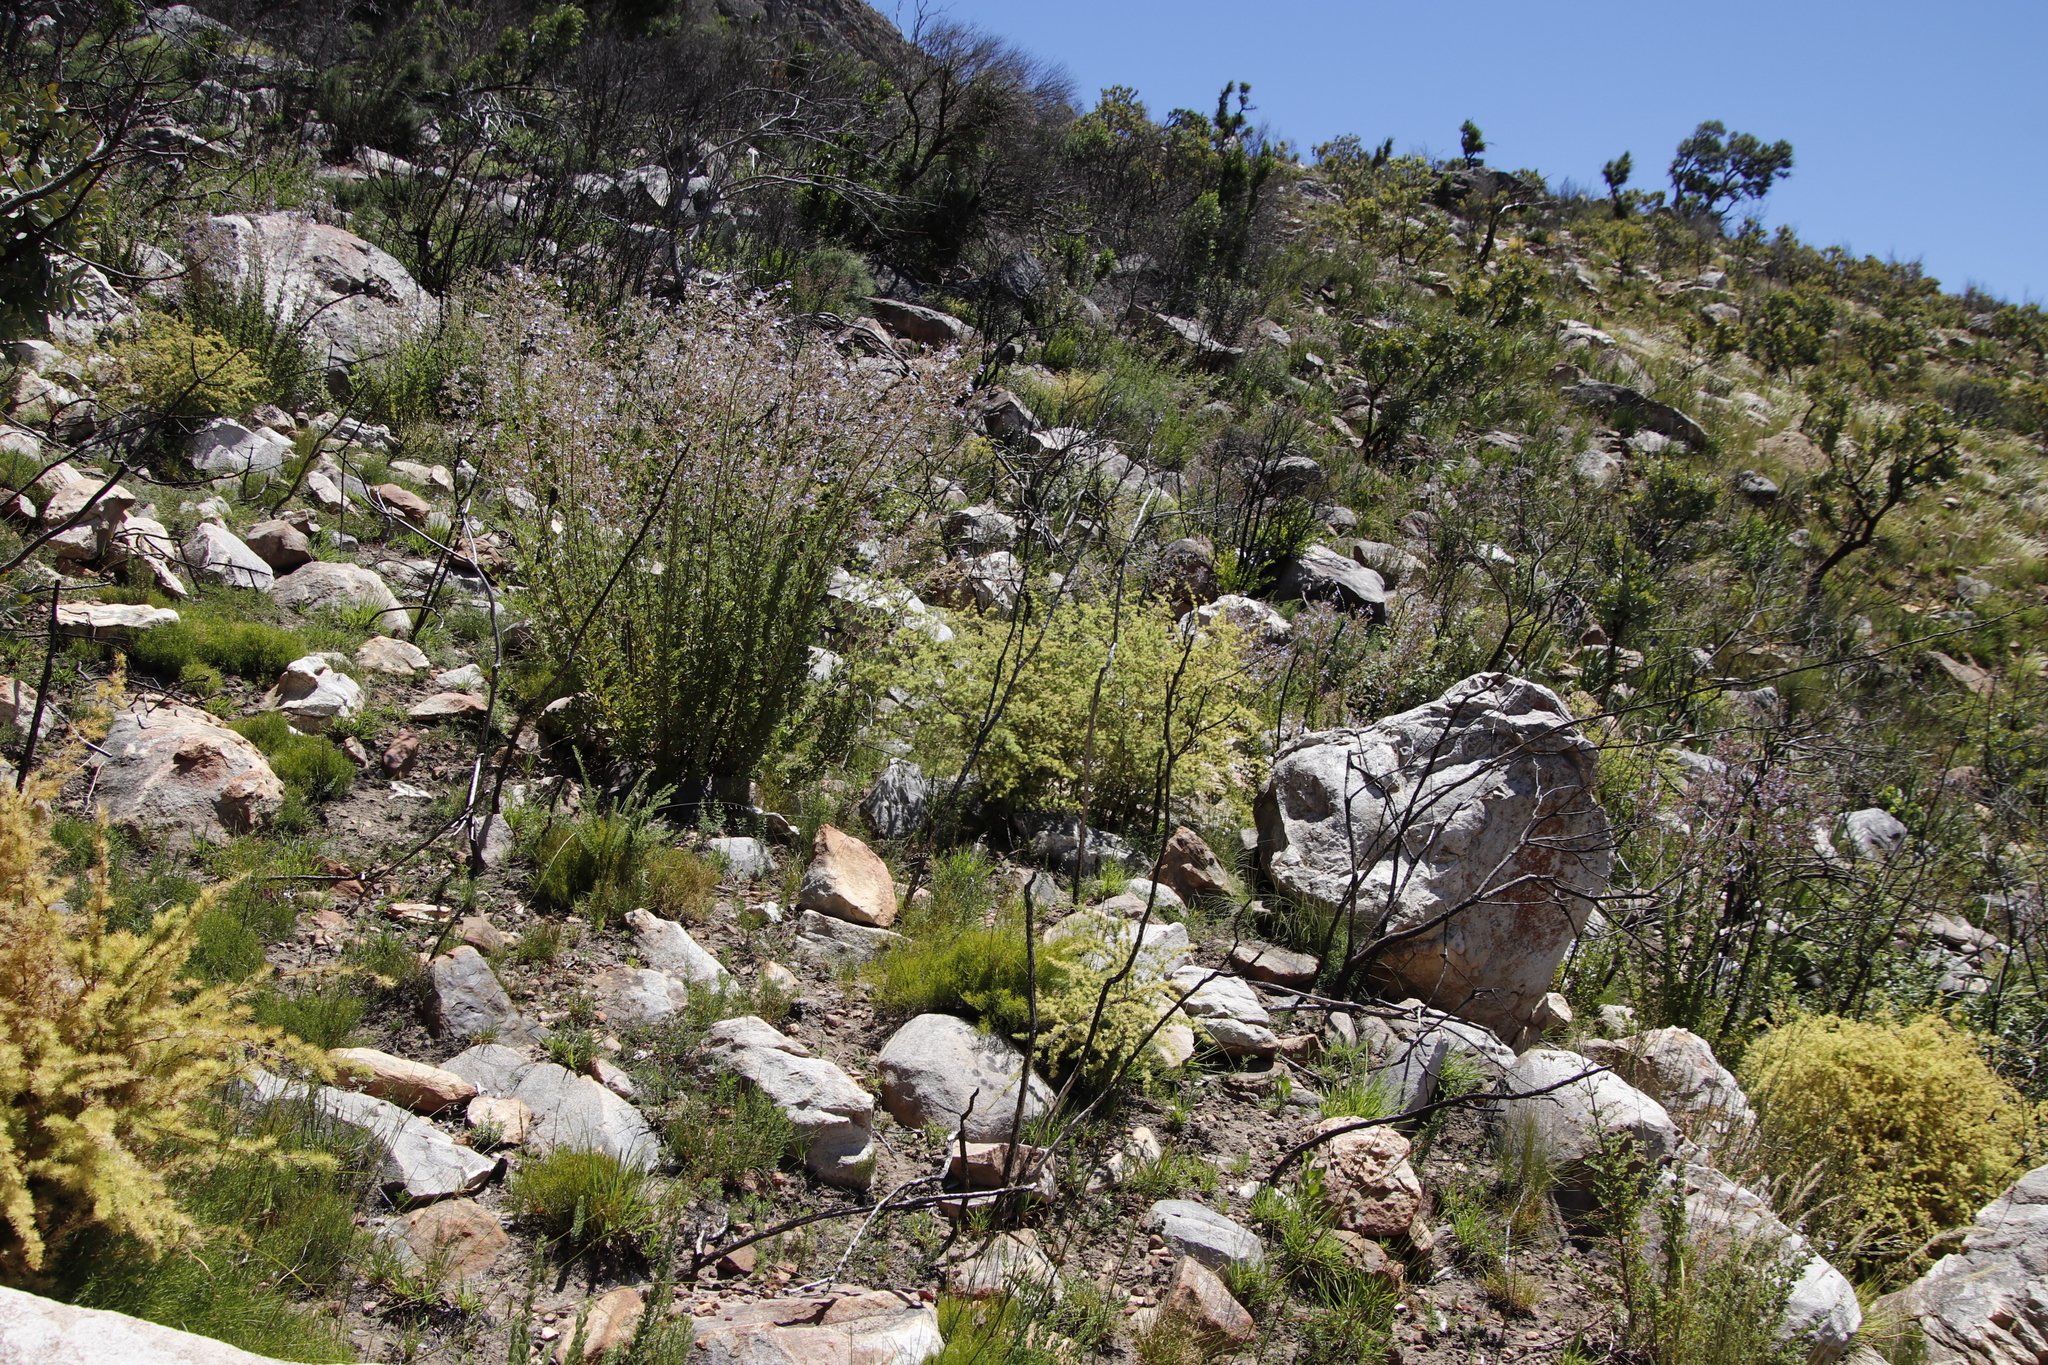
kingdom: Plantae
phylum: Tracheophyta
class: Magnoliopsida
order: Lamiales
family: Lamiaceae
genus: Salvia
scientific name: Salvia chamelaeagnea
